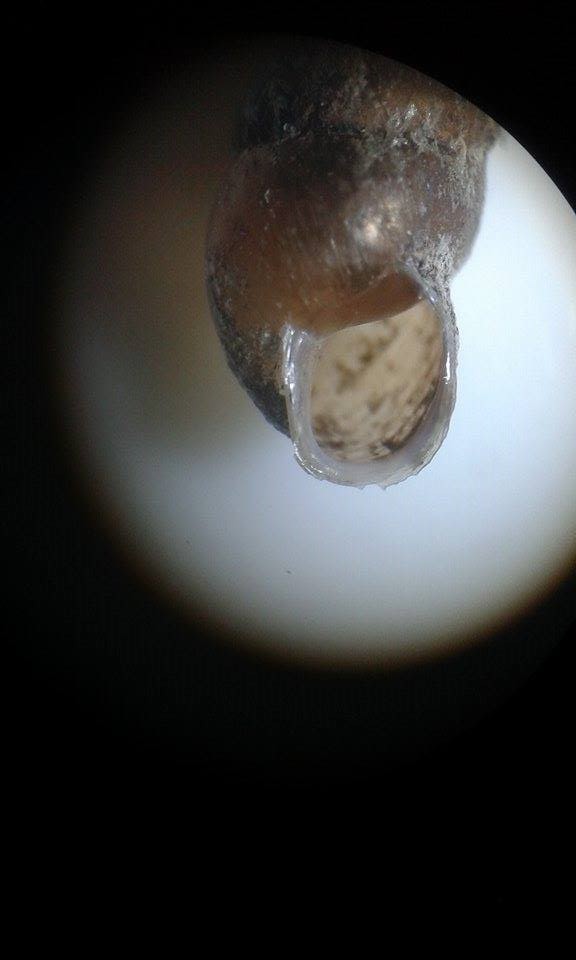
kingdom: Animalia
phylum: Mollusca
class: Gastropoda
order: Stylommatophora
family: Enidae
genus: Merdigera
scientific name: Merdigera obscura
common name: Lesser bulin
